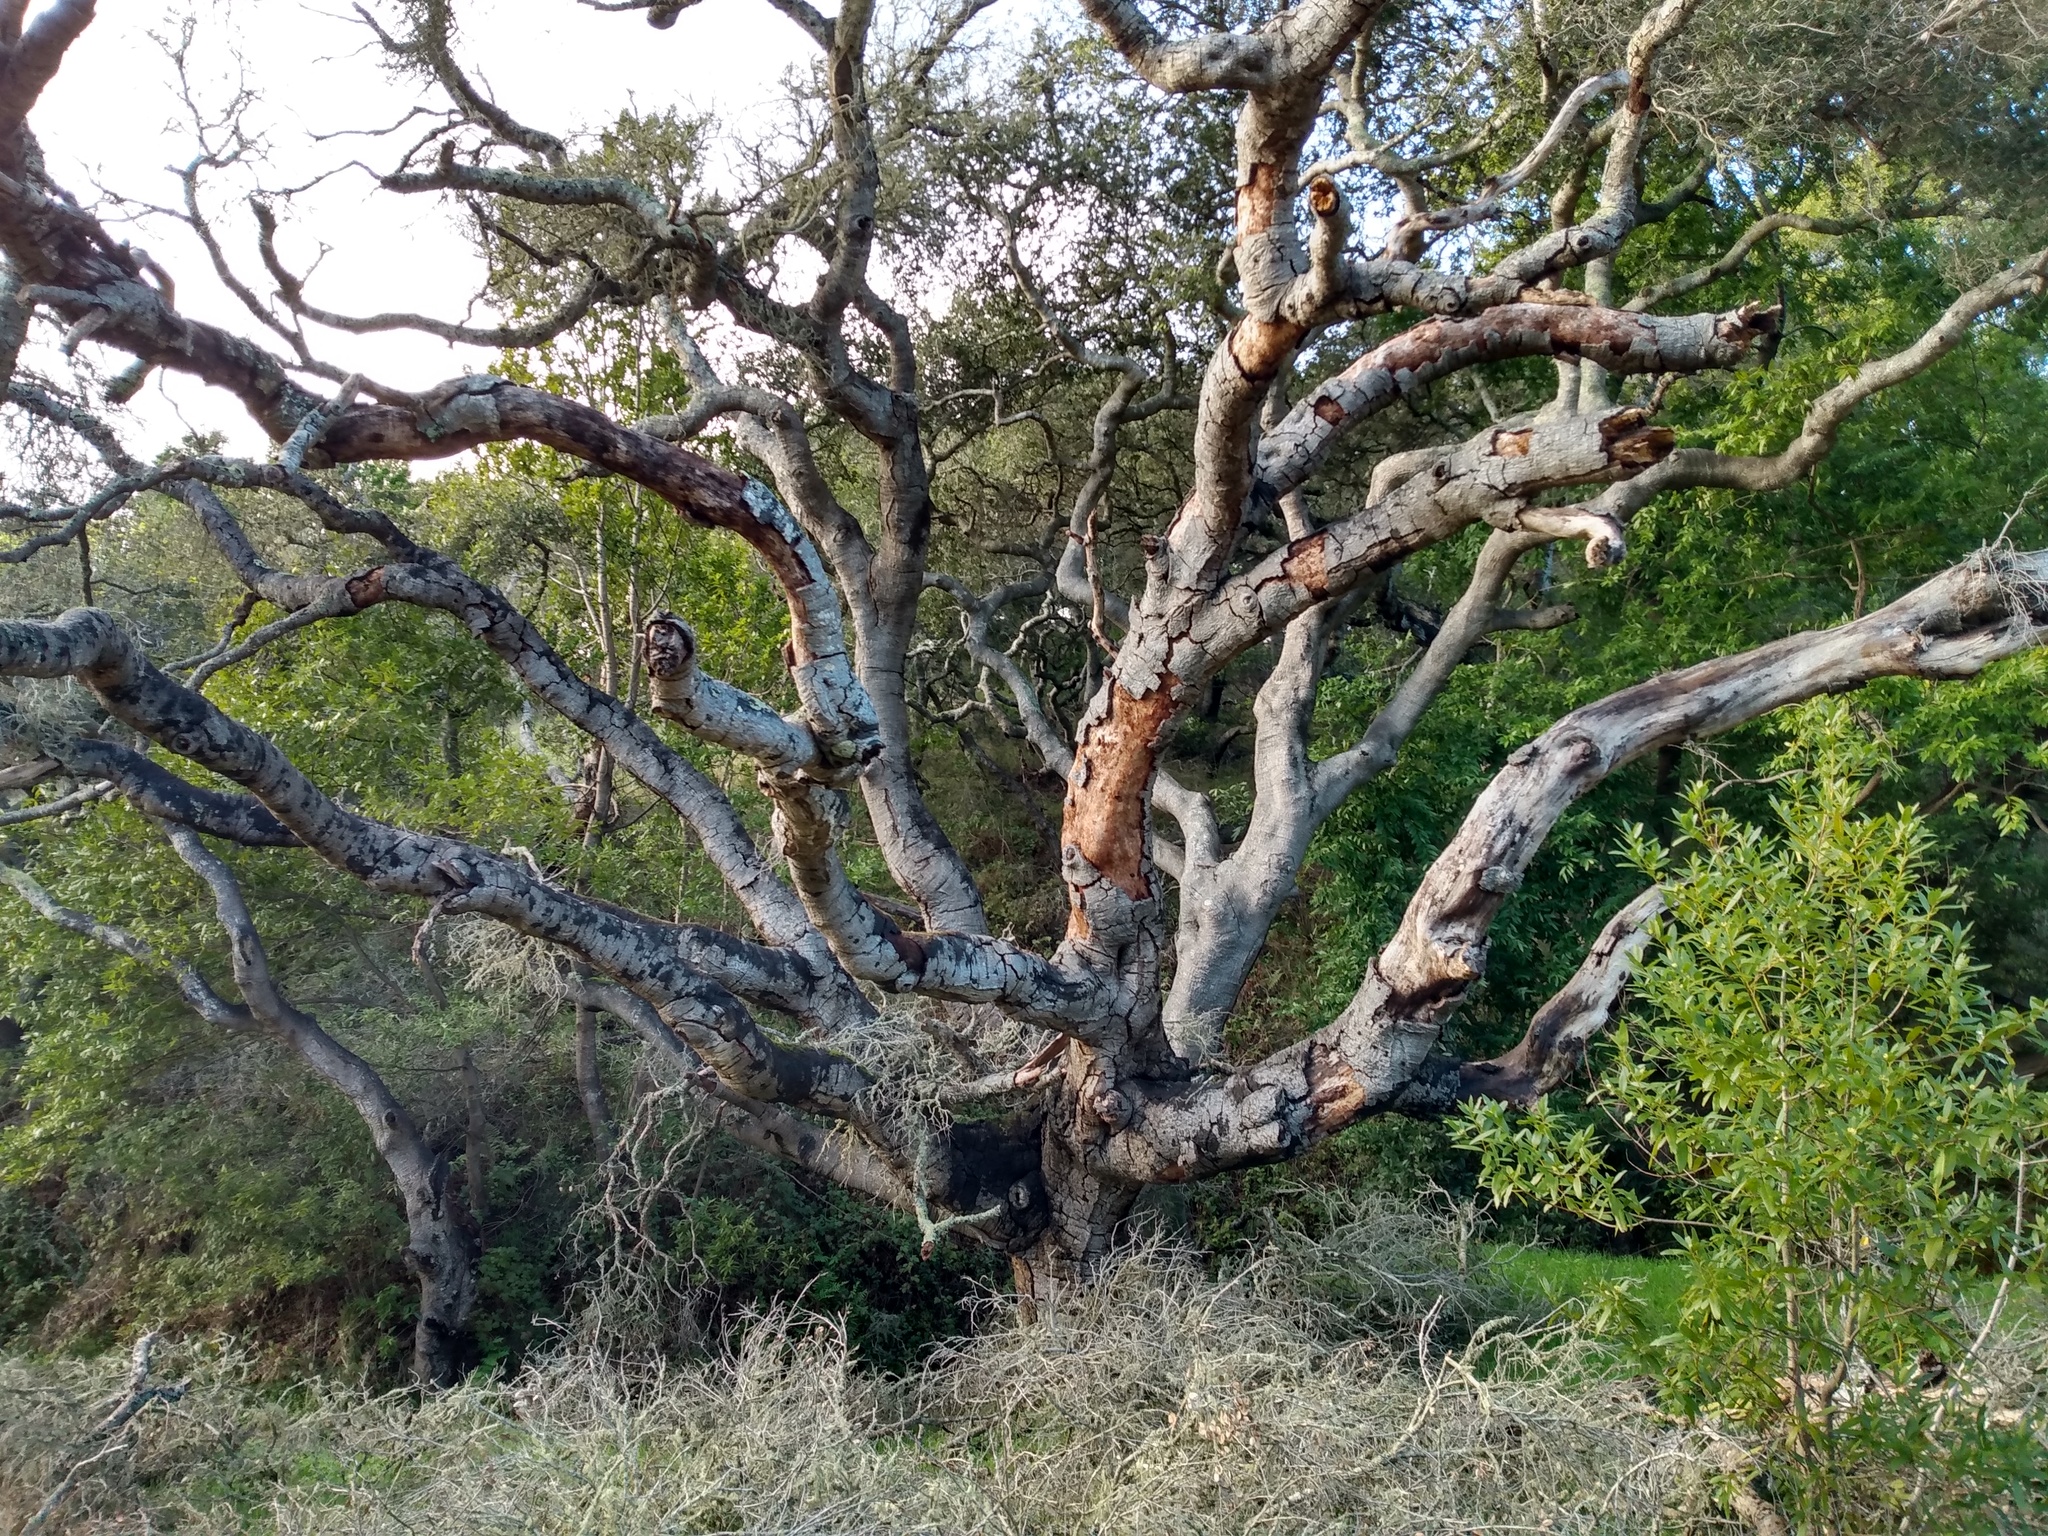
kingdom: Plantae
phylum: Tracheophyta
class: Magnoliopsida
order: Fagales
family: Fagaceae
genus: Quercus
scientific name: Quercus agrifolia
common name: California live oak
